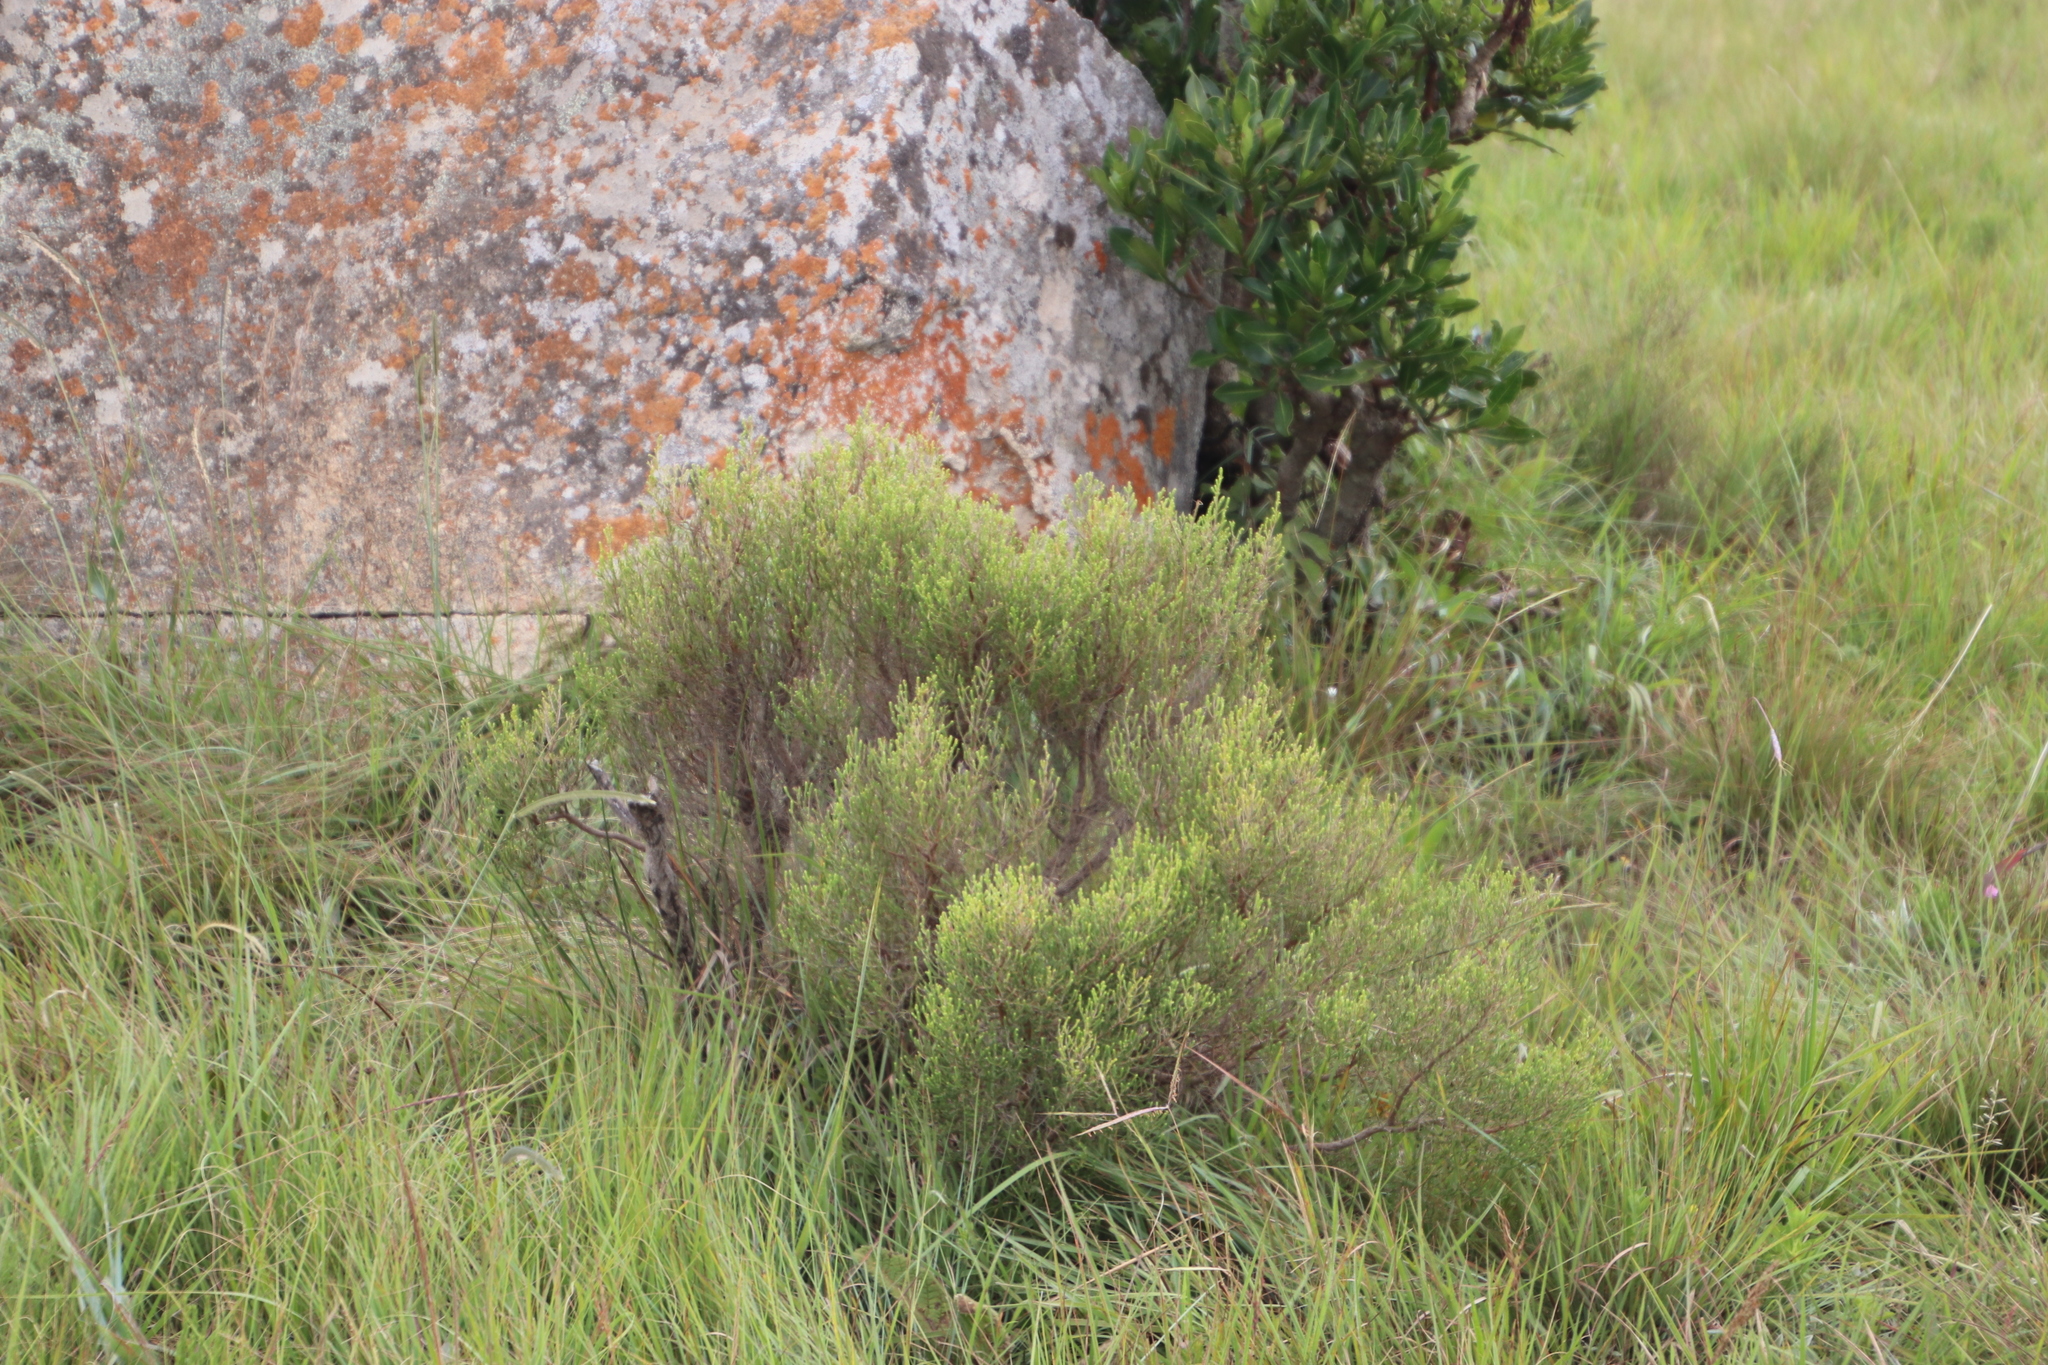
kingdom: Plantae
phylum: Tracheophyta
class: Magnoliopsida
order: Ericales
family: Ericaceae
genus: Erica
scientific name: Erica drakensbergensis
